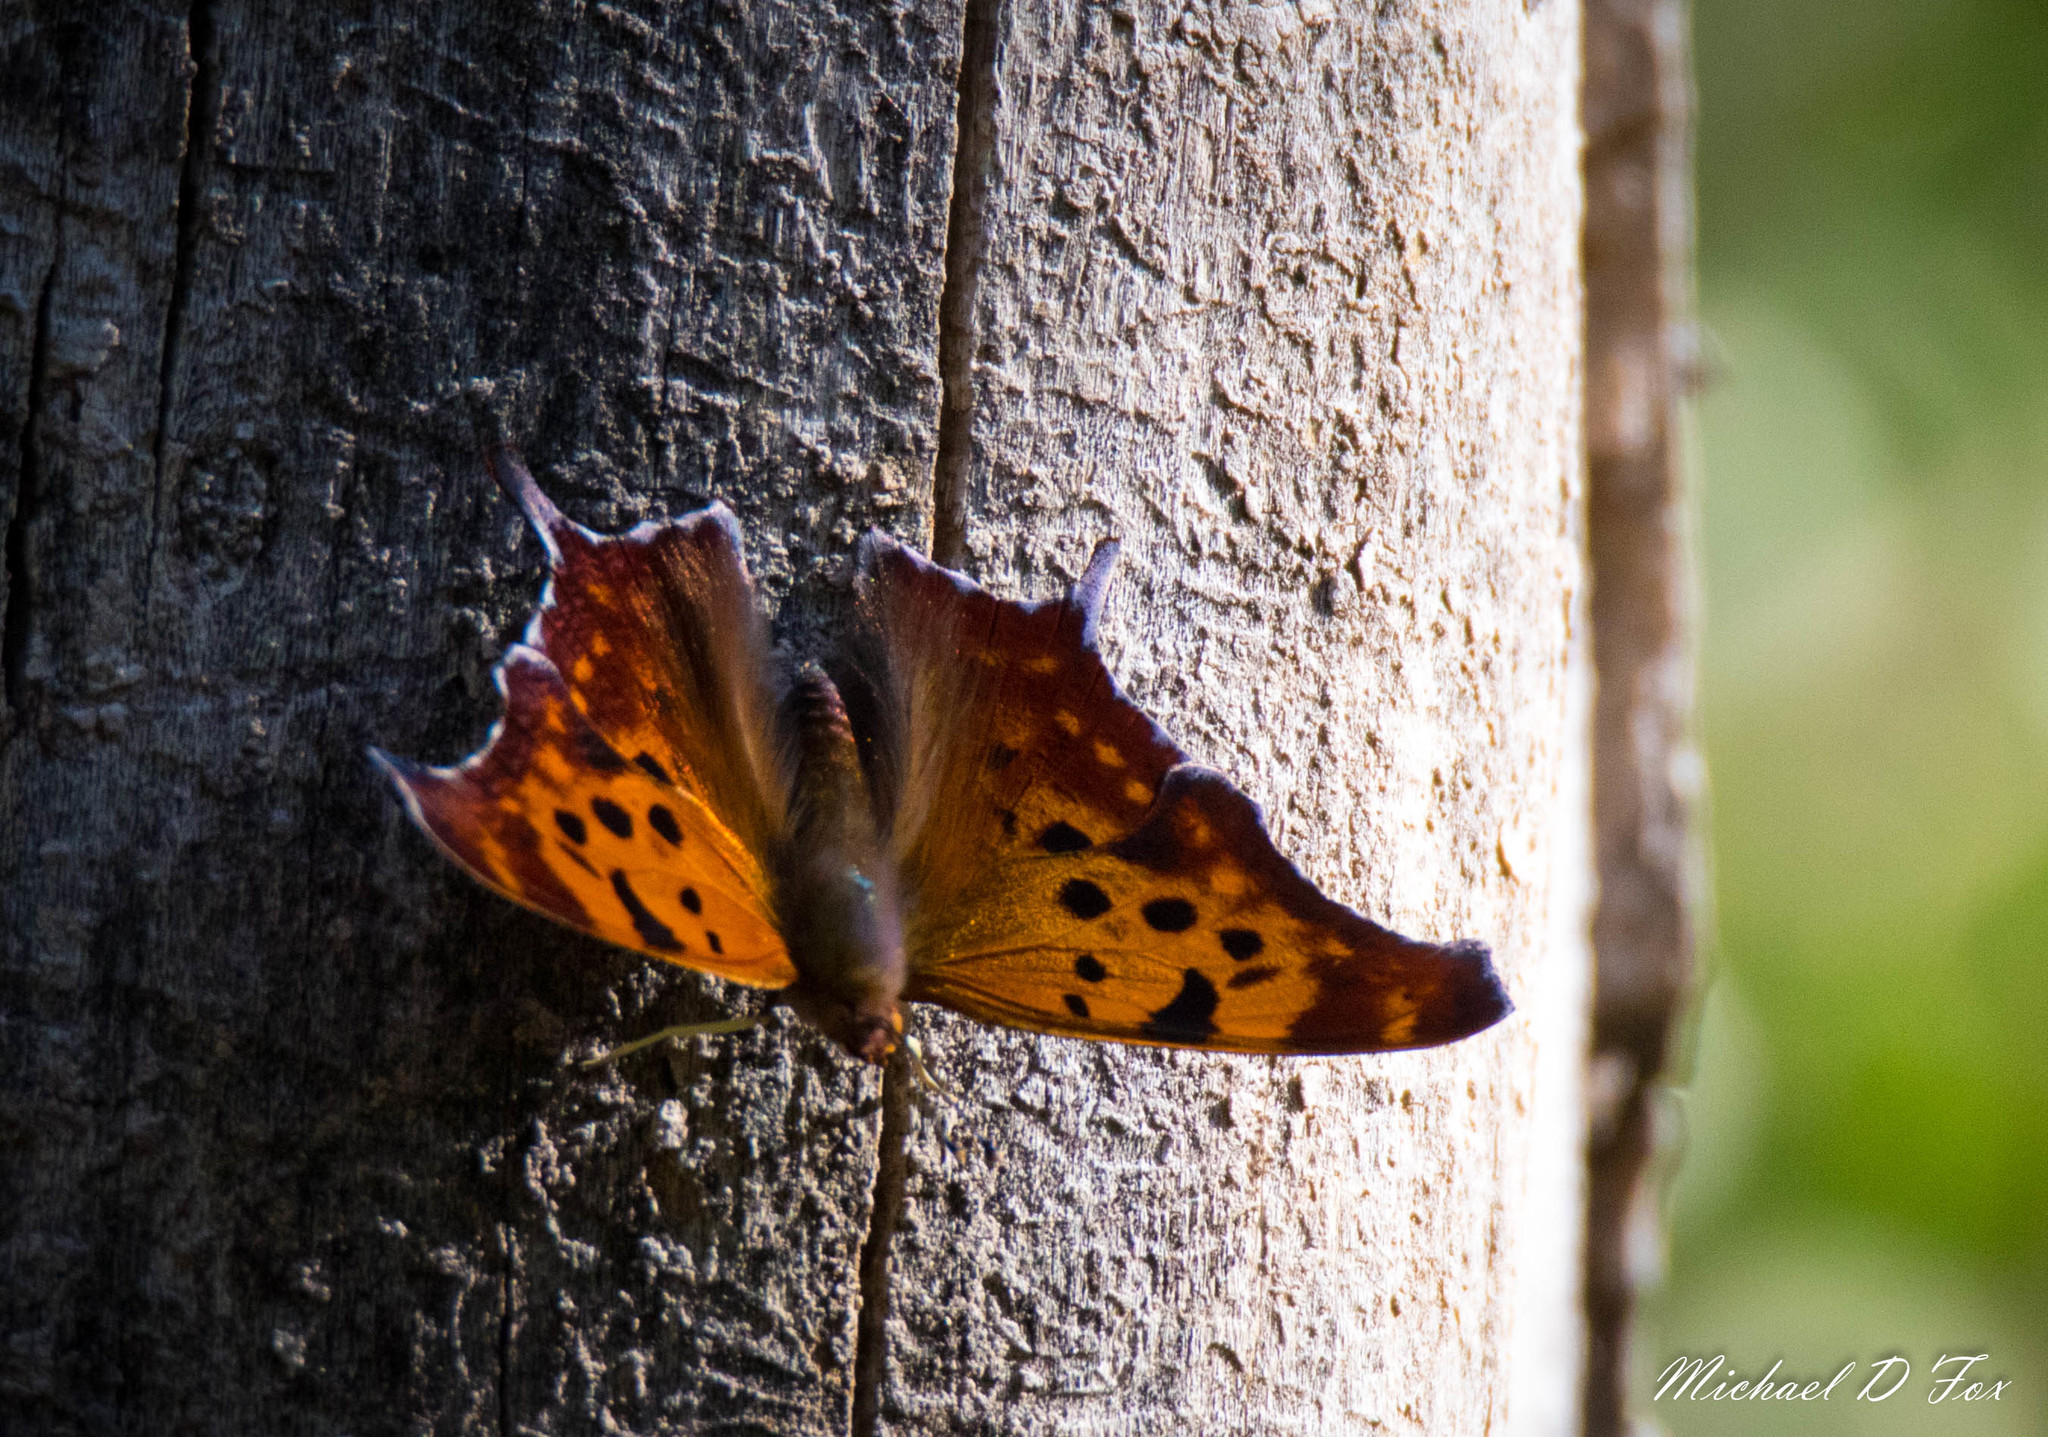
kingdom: Animalia
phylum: Arthropoda
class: Insecta
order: Lepidoptera
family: Nymphalidae
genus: Polygonia
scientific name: Polygonia interrogationis
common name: Question mark
